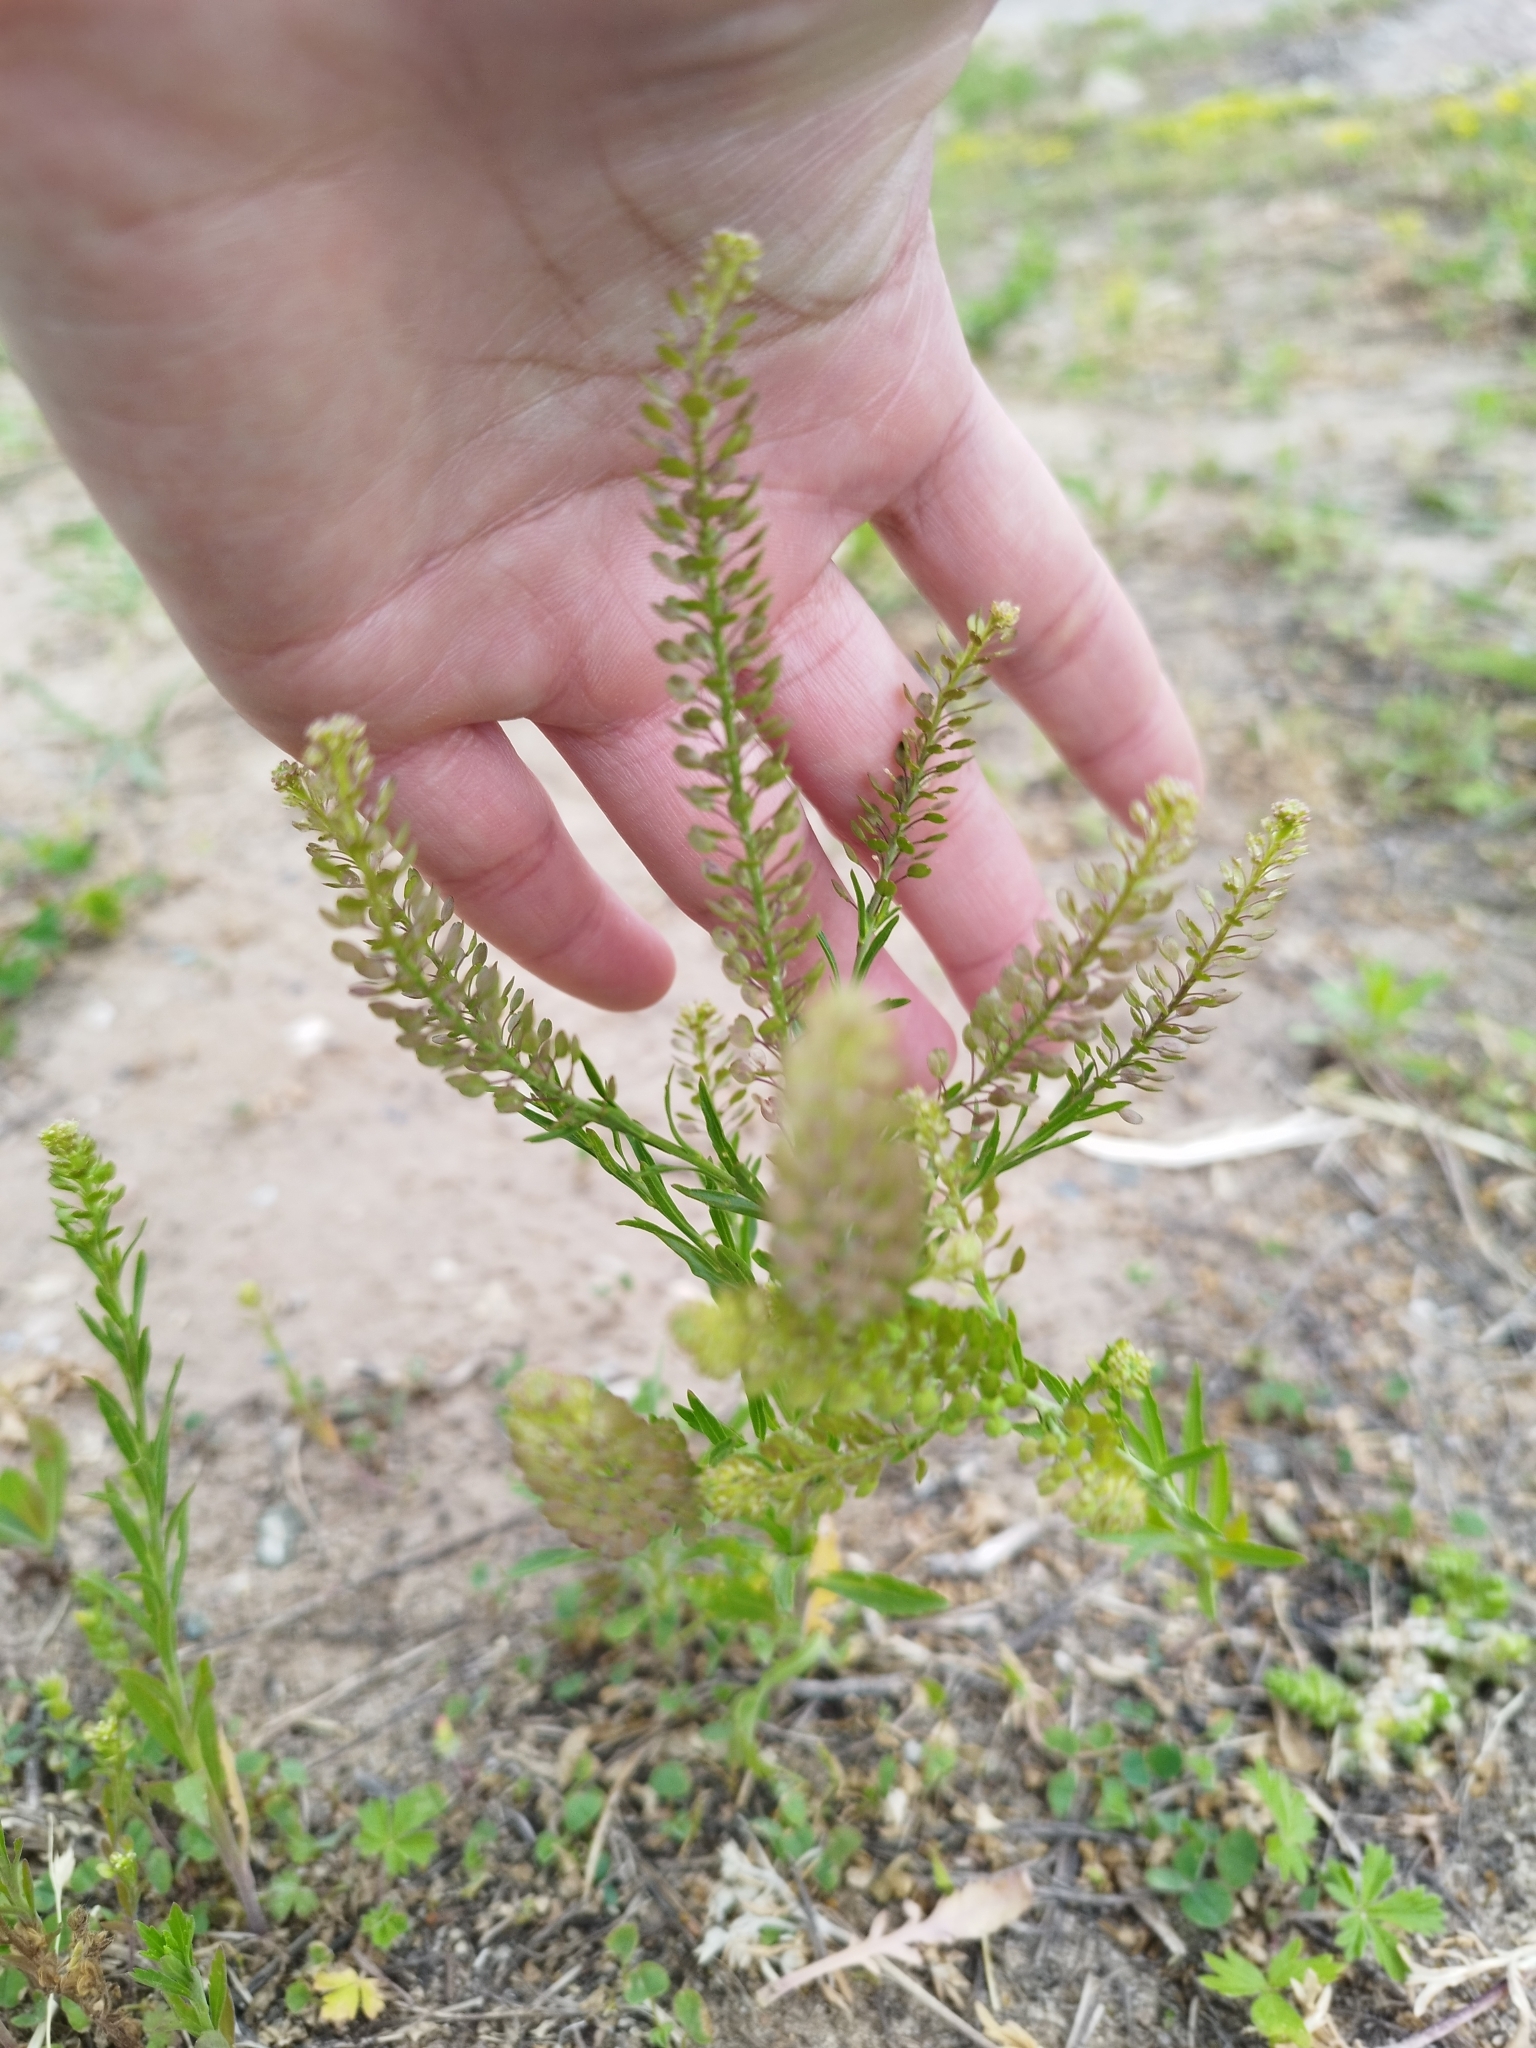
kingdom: Plantae
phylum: Tracheophyta
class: Magnoliopsida
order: Brassicales
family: Brassicaceae
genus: Lepidium
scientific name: Lepidium densiflorum
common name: Miner's pepperwort
